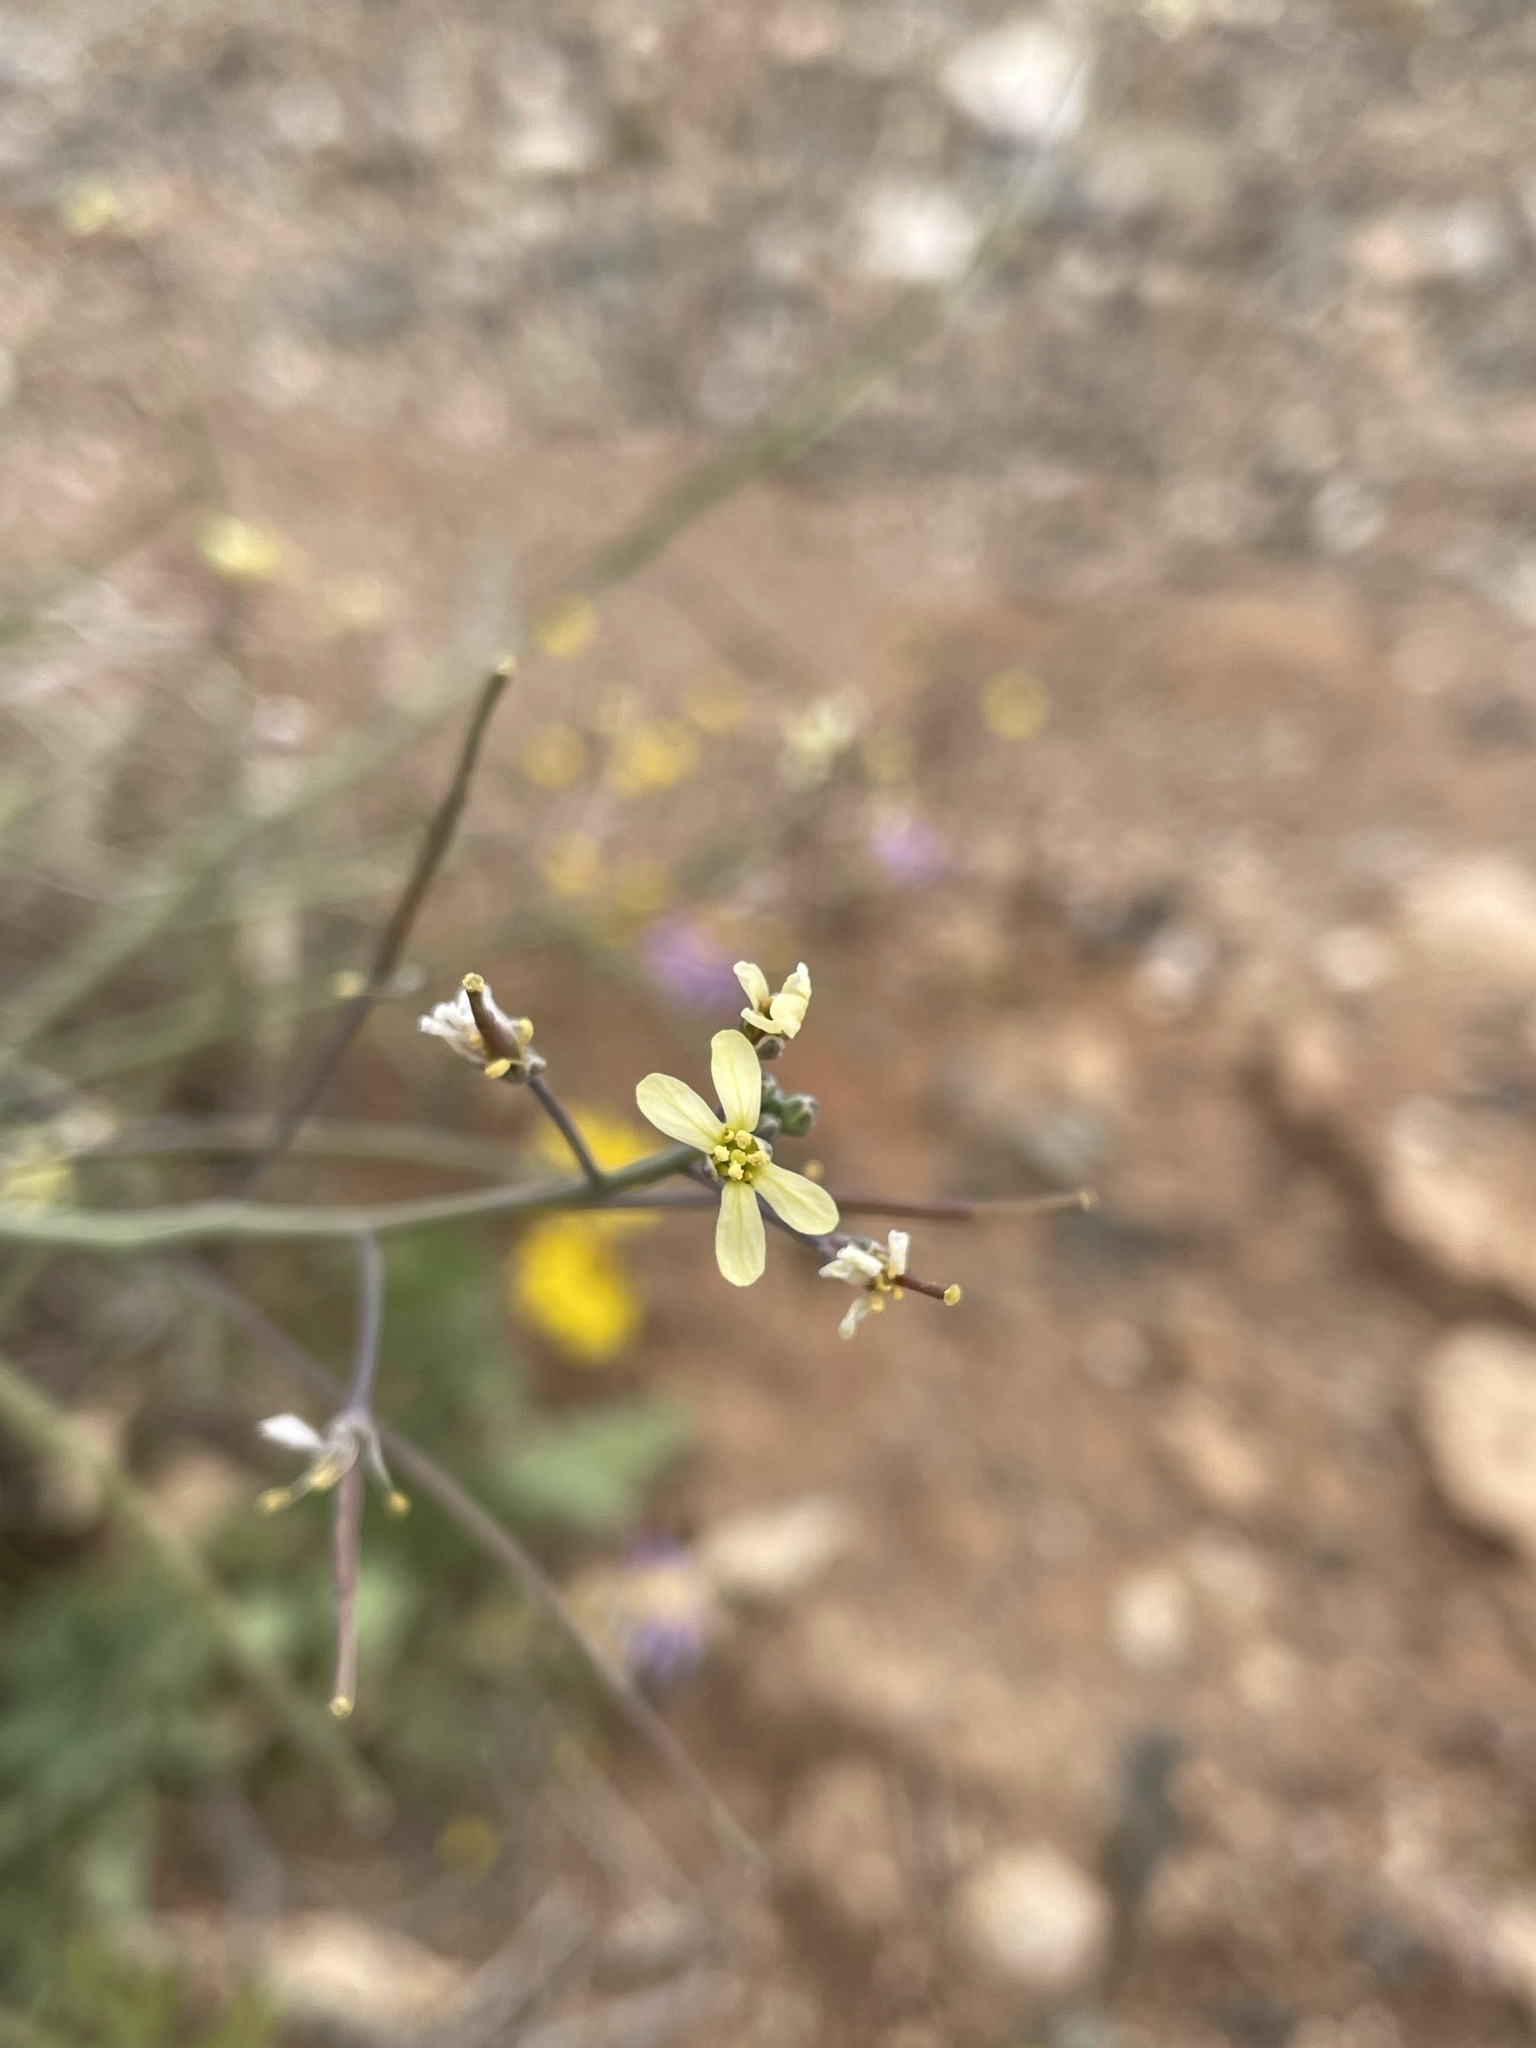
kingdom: Plantae
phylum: Tracheophyta
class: Magnoliopsida
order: Brassicales
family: Brassicaceae
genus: Brassica
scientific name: Brassica tournefortii
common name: Pale cabbage
